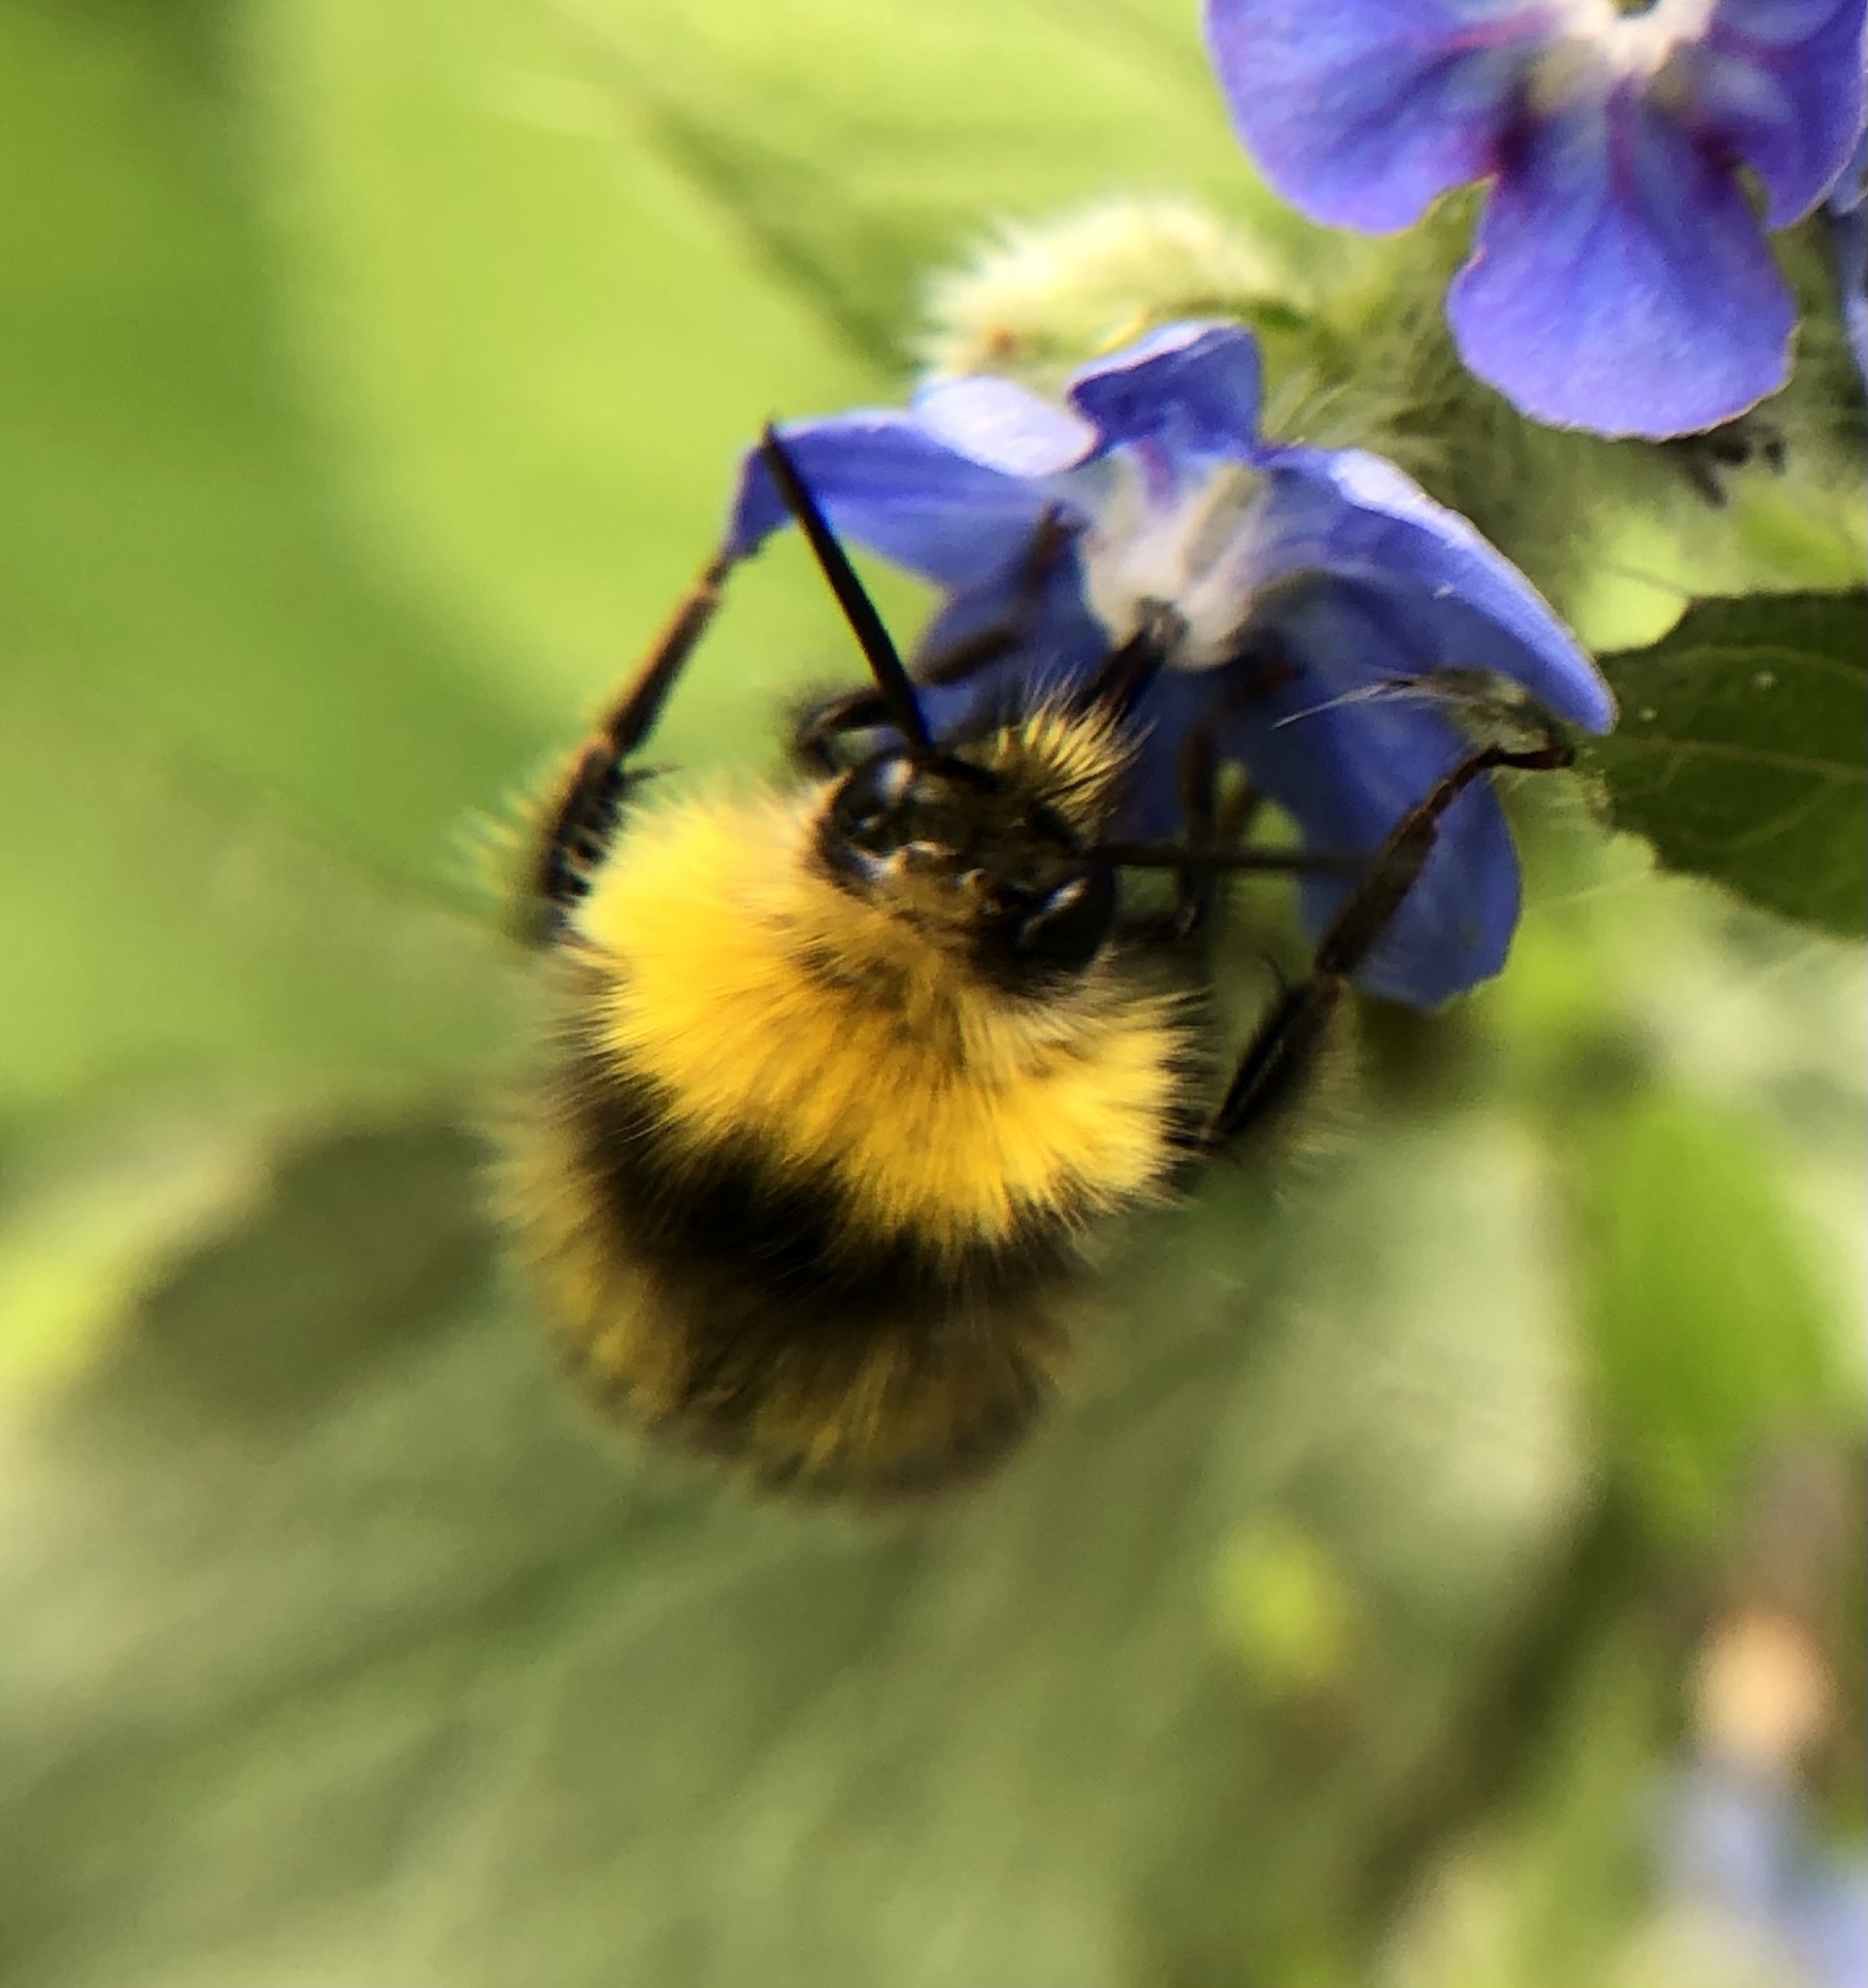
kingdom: Animalia
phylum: Arthropoda
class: Insecta
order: Hymenoptera
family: Apidae
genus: Bombus
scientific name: Bombus pratorum
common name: Early humble-bee
